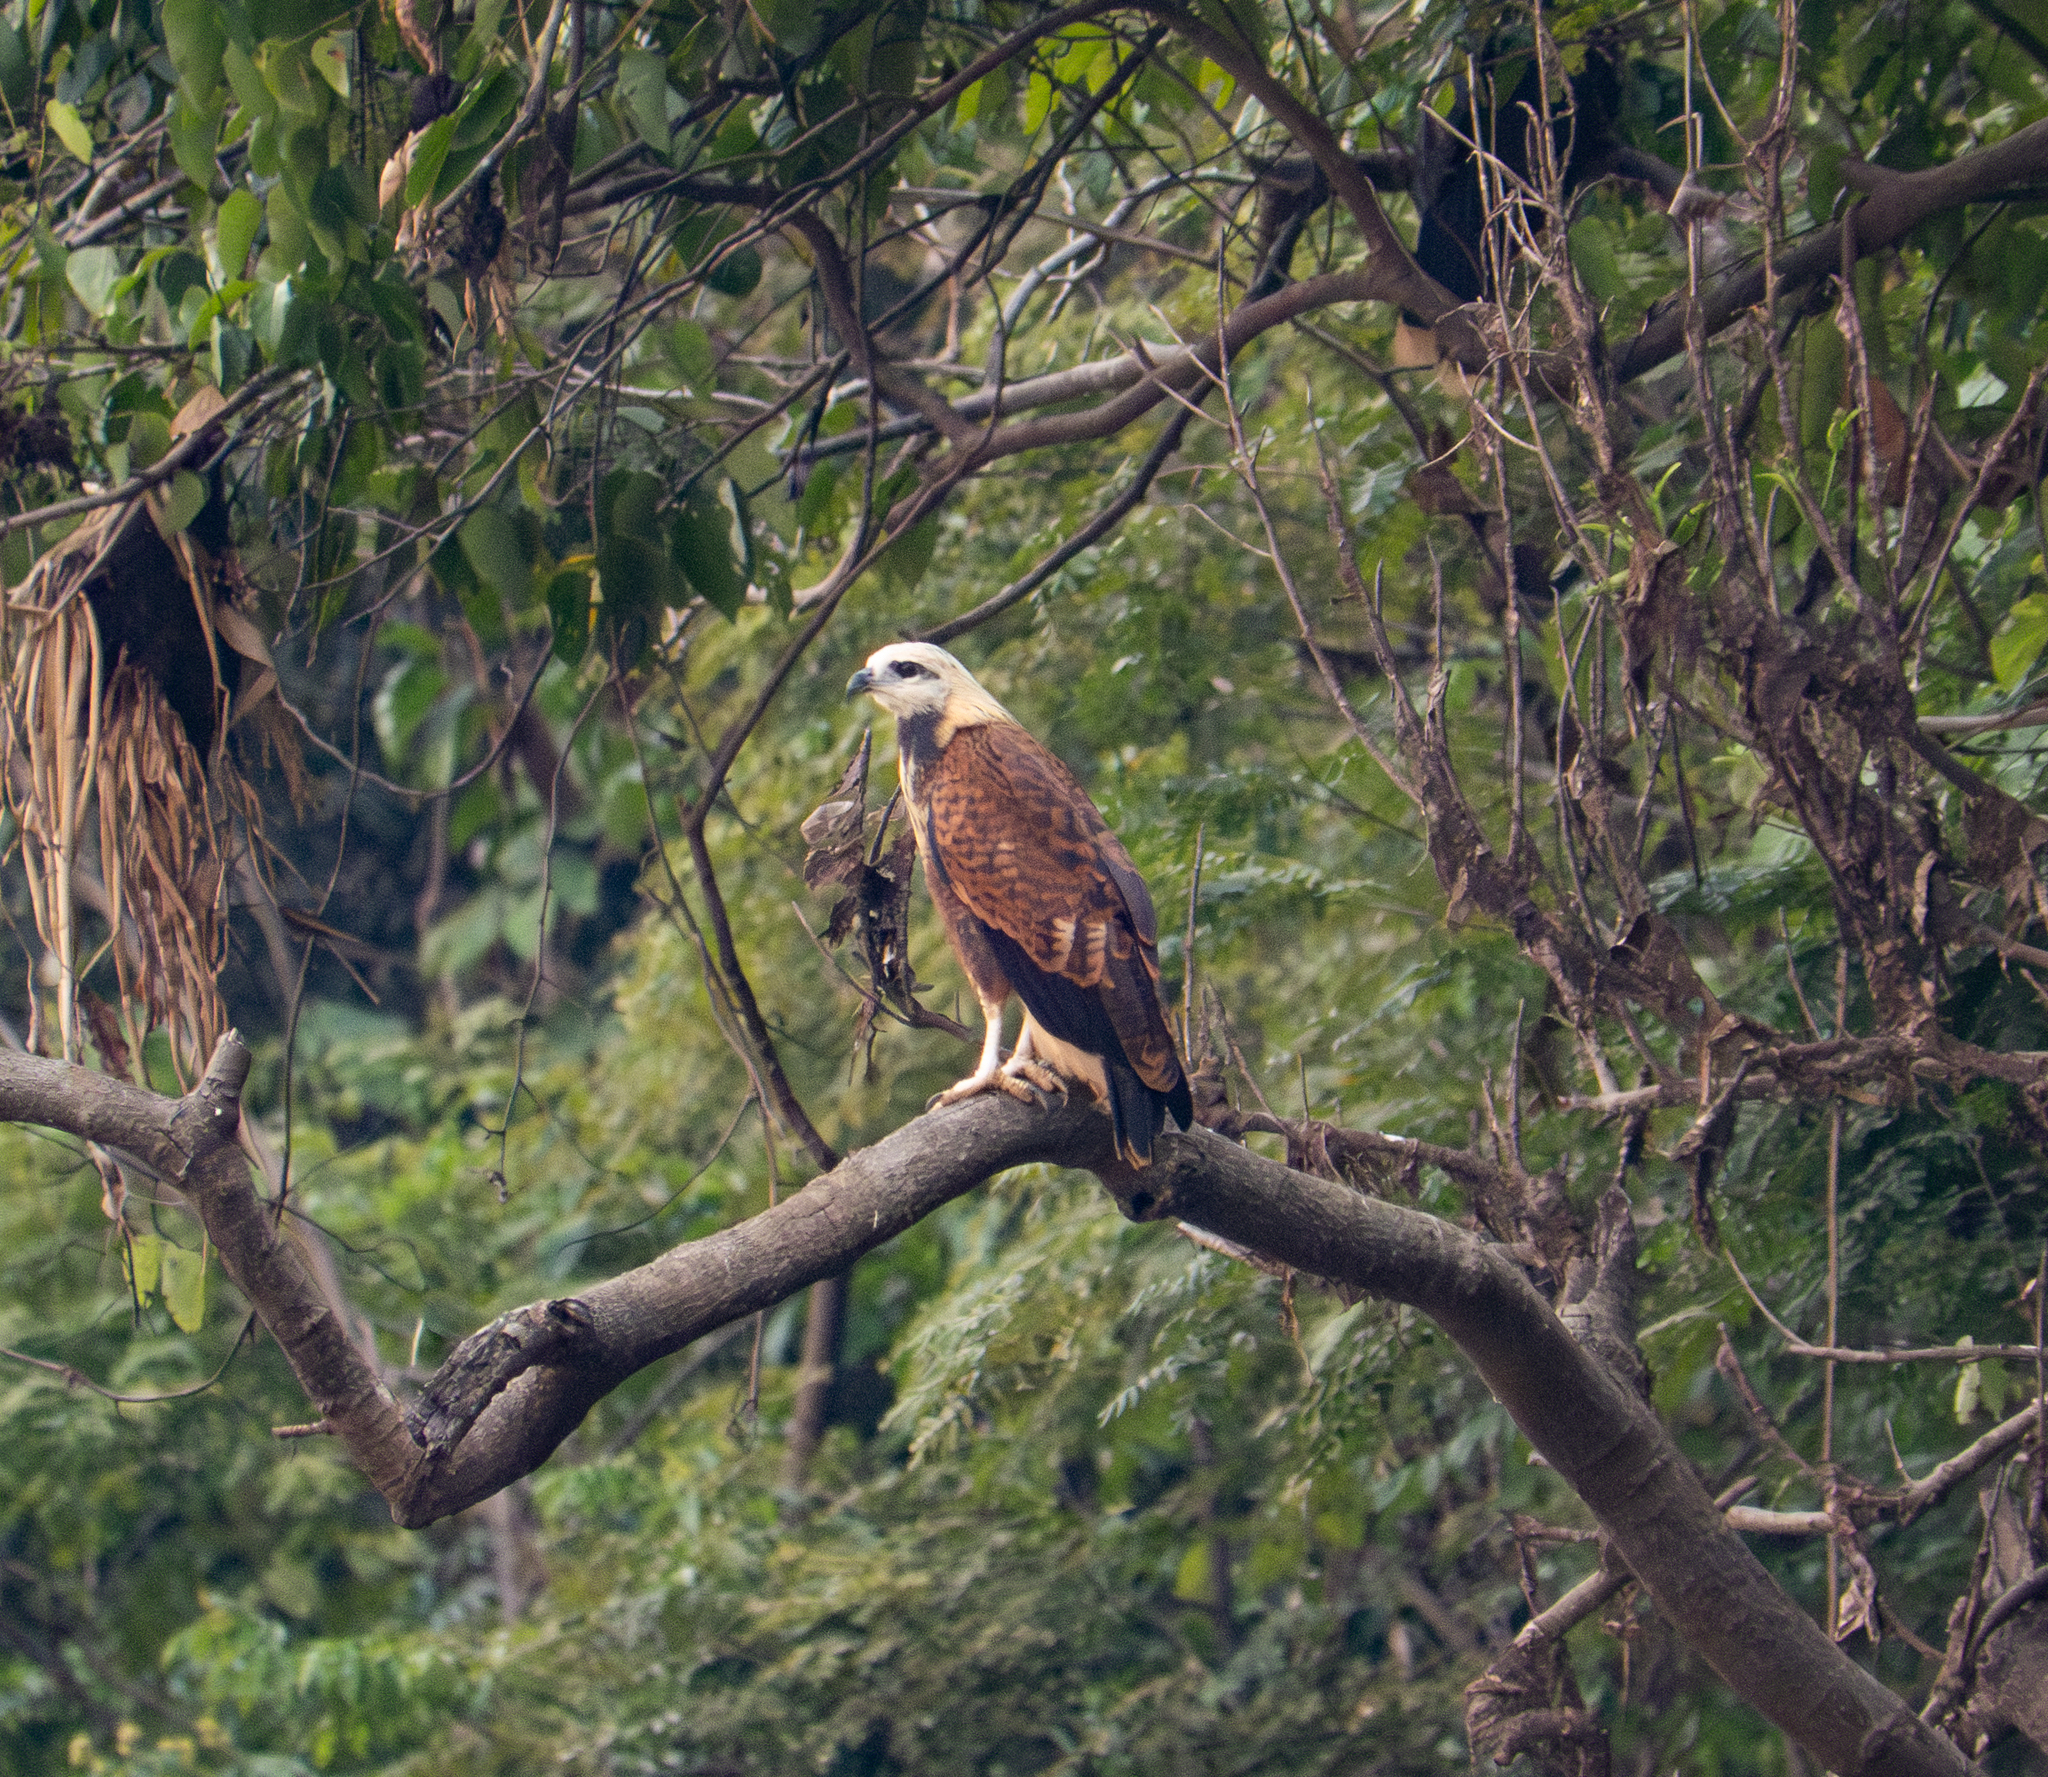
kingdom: Animalia
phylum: Chordata
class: Aves
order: Accipitriformes
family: Accipitridae
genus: Busarellus
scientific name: Busarellus nigricollis
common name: Black-collared hawk
